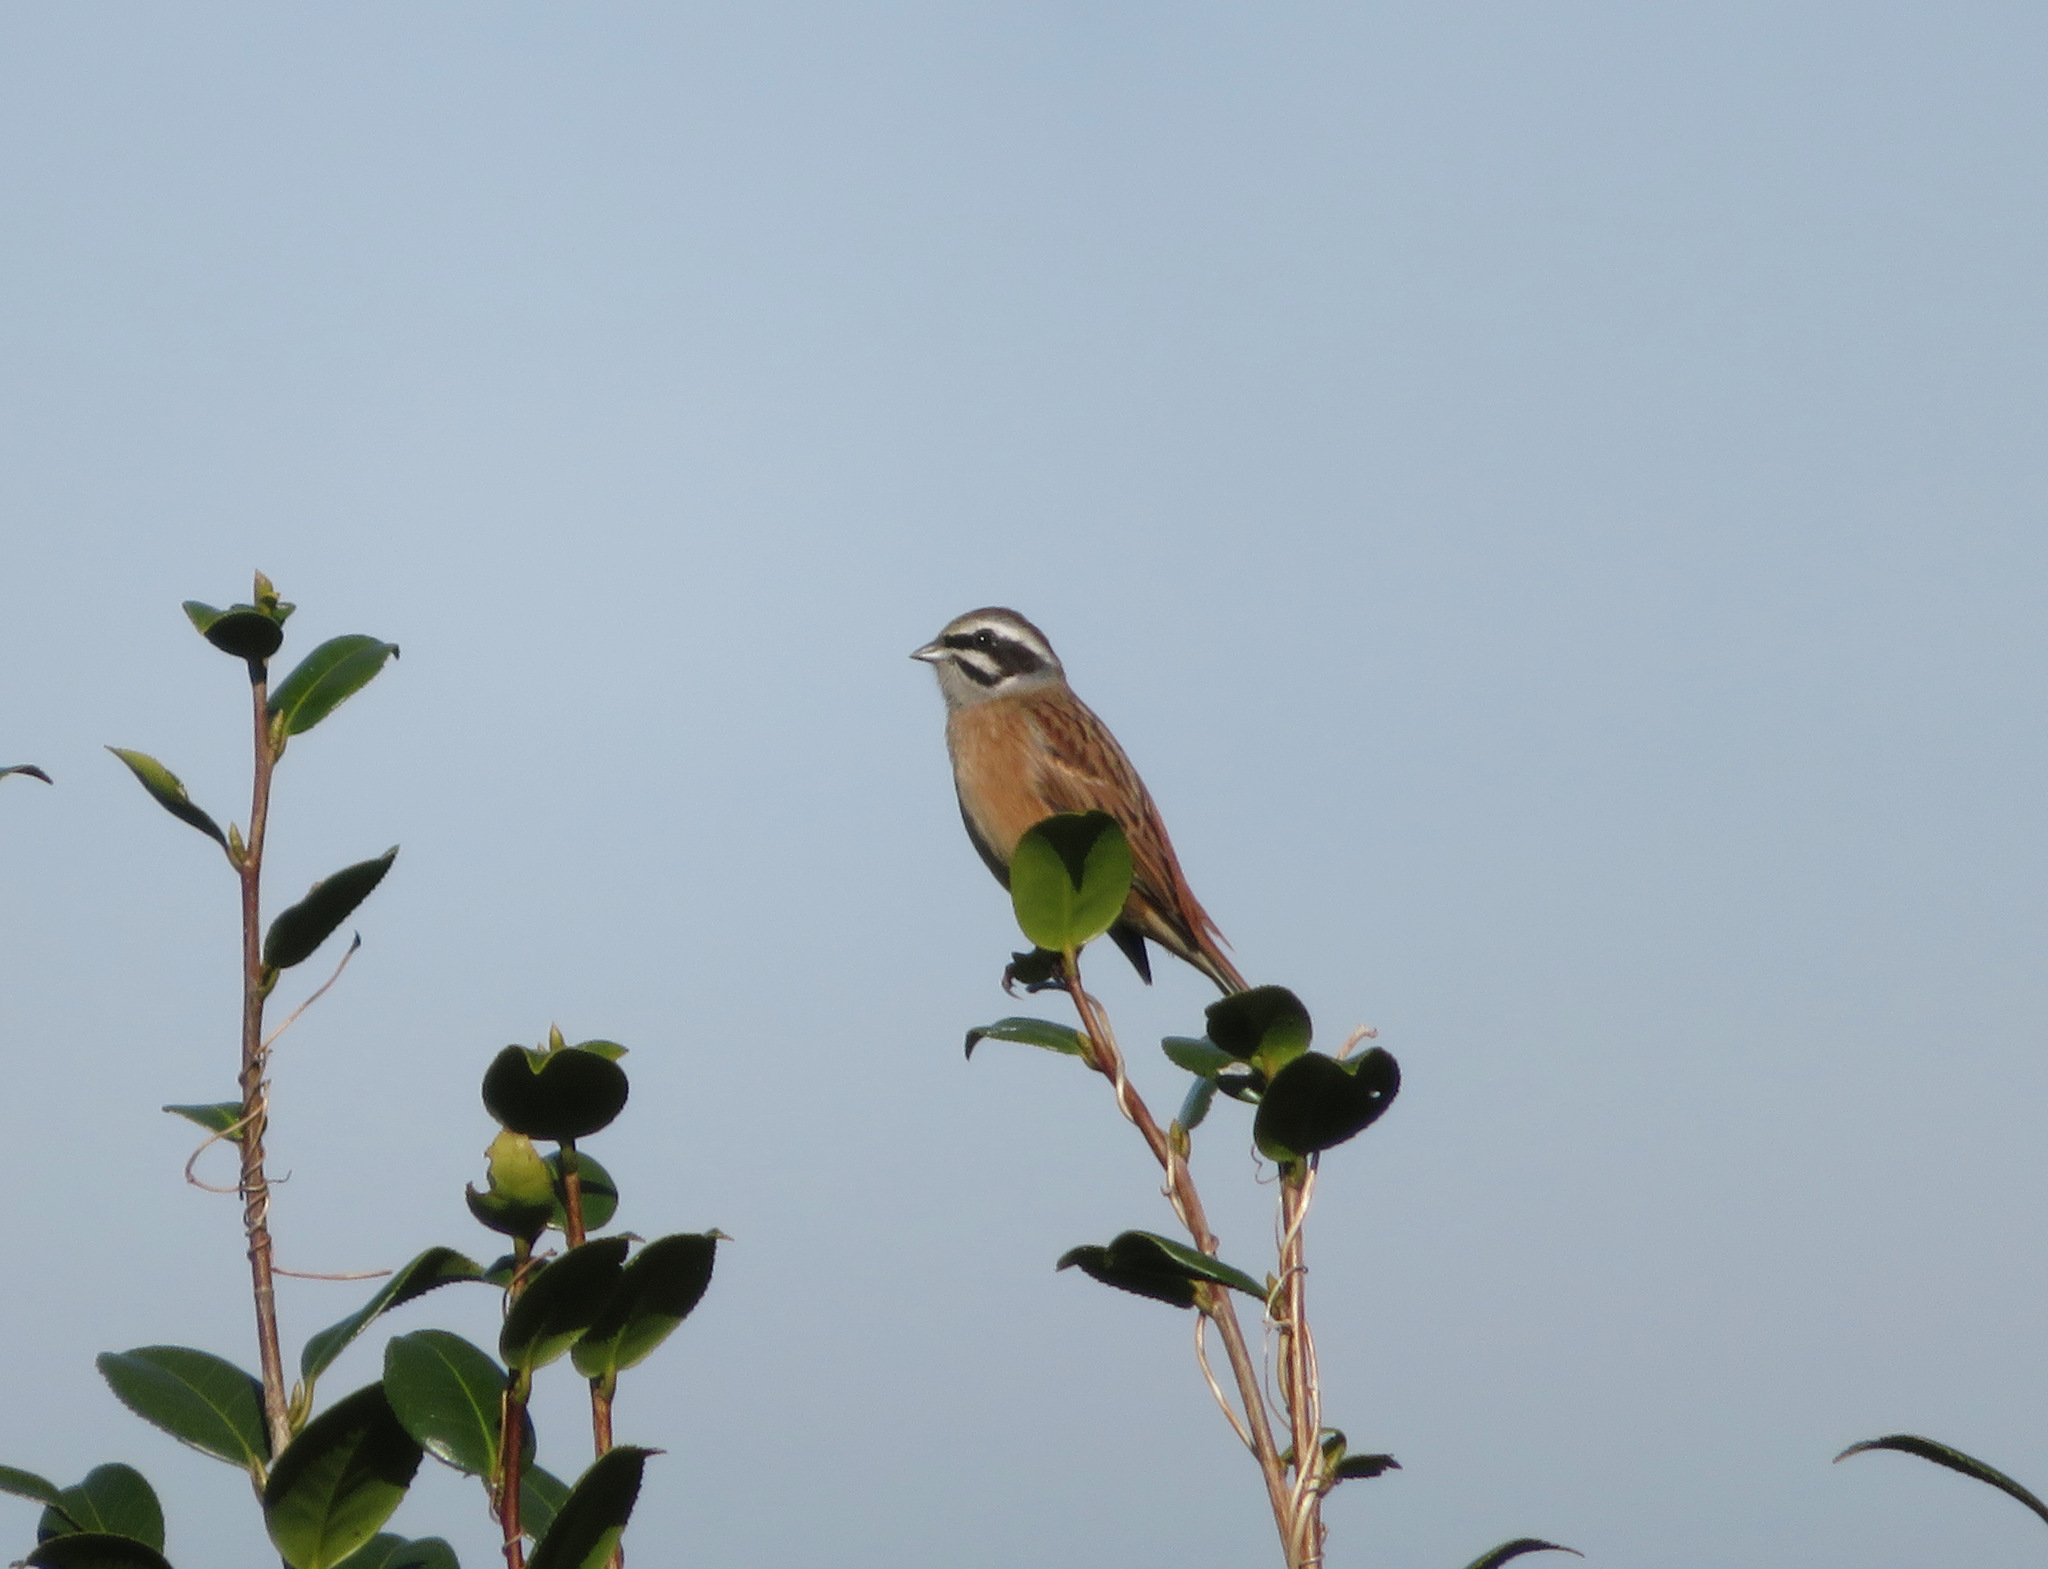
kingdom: Animalia
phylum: Chordata
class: Aves
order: Passeriformes
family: Emberizidae
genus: Emberiza
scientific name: Emberiza cioides
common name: Meadow bunting
